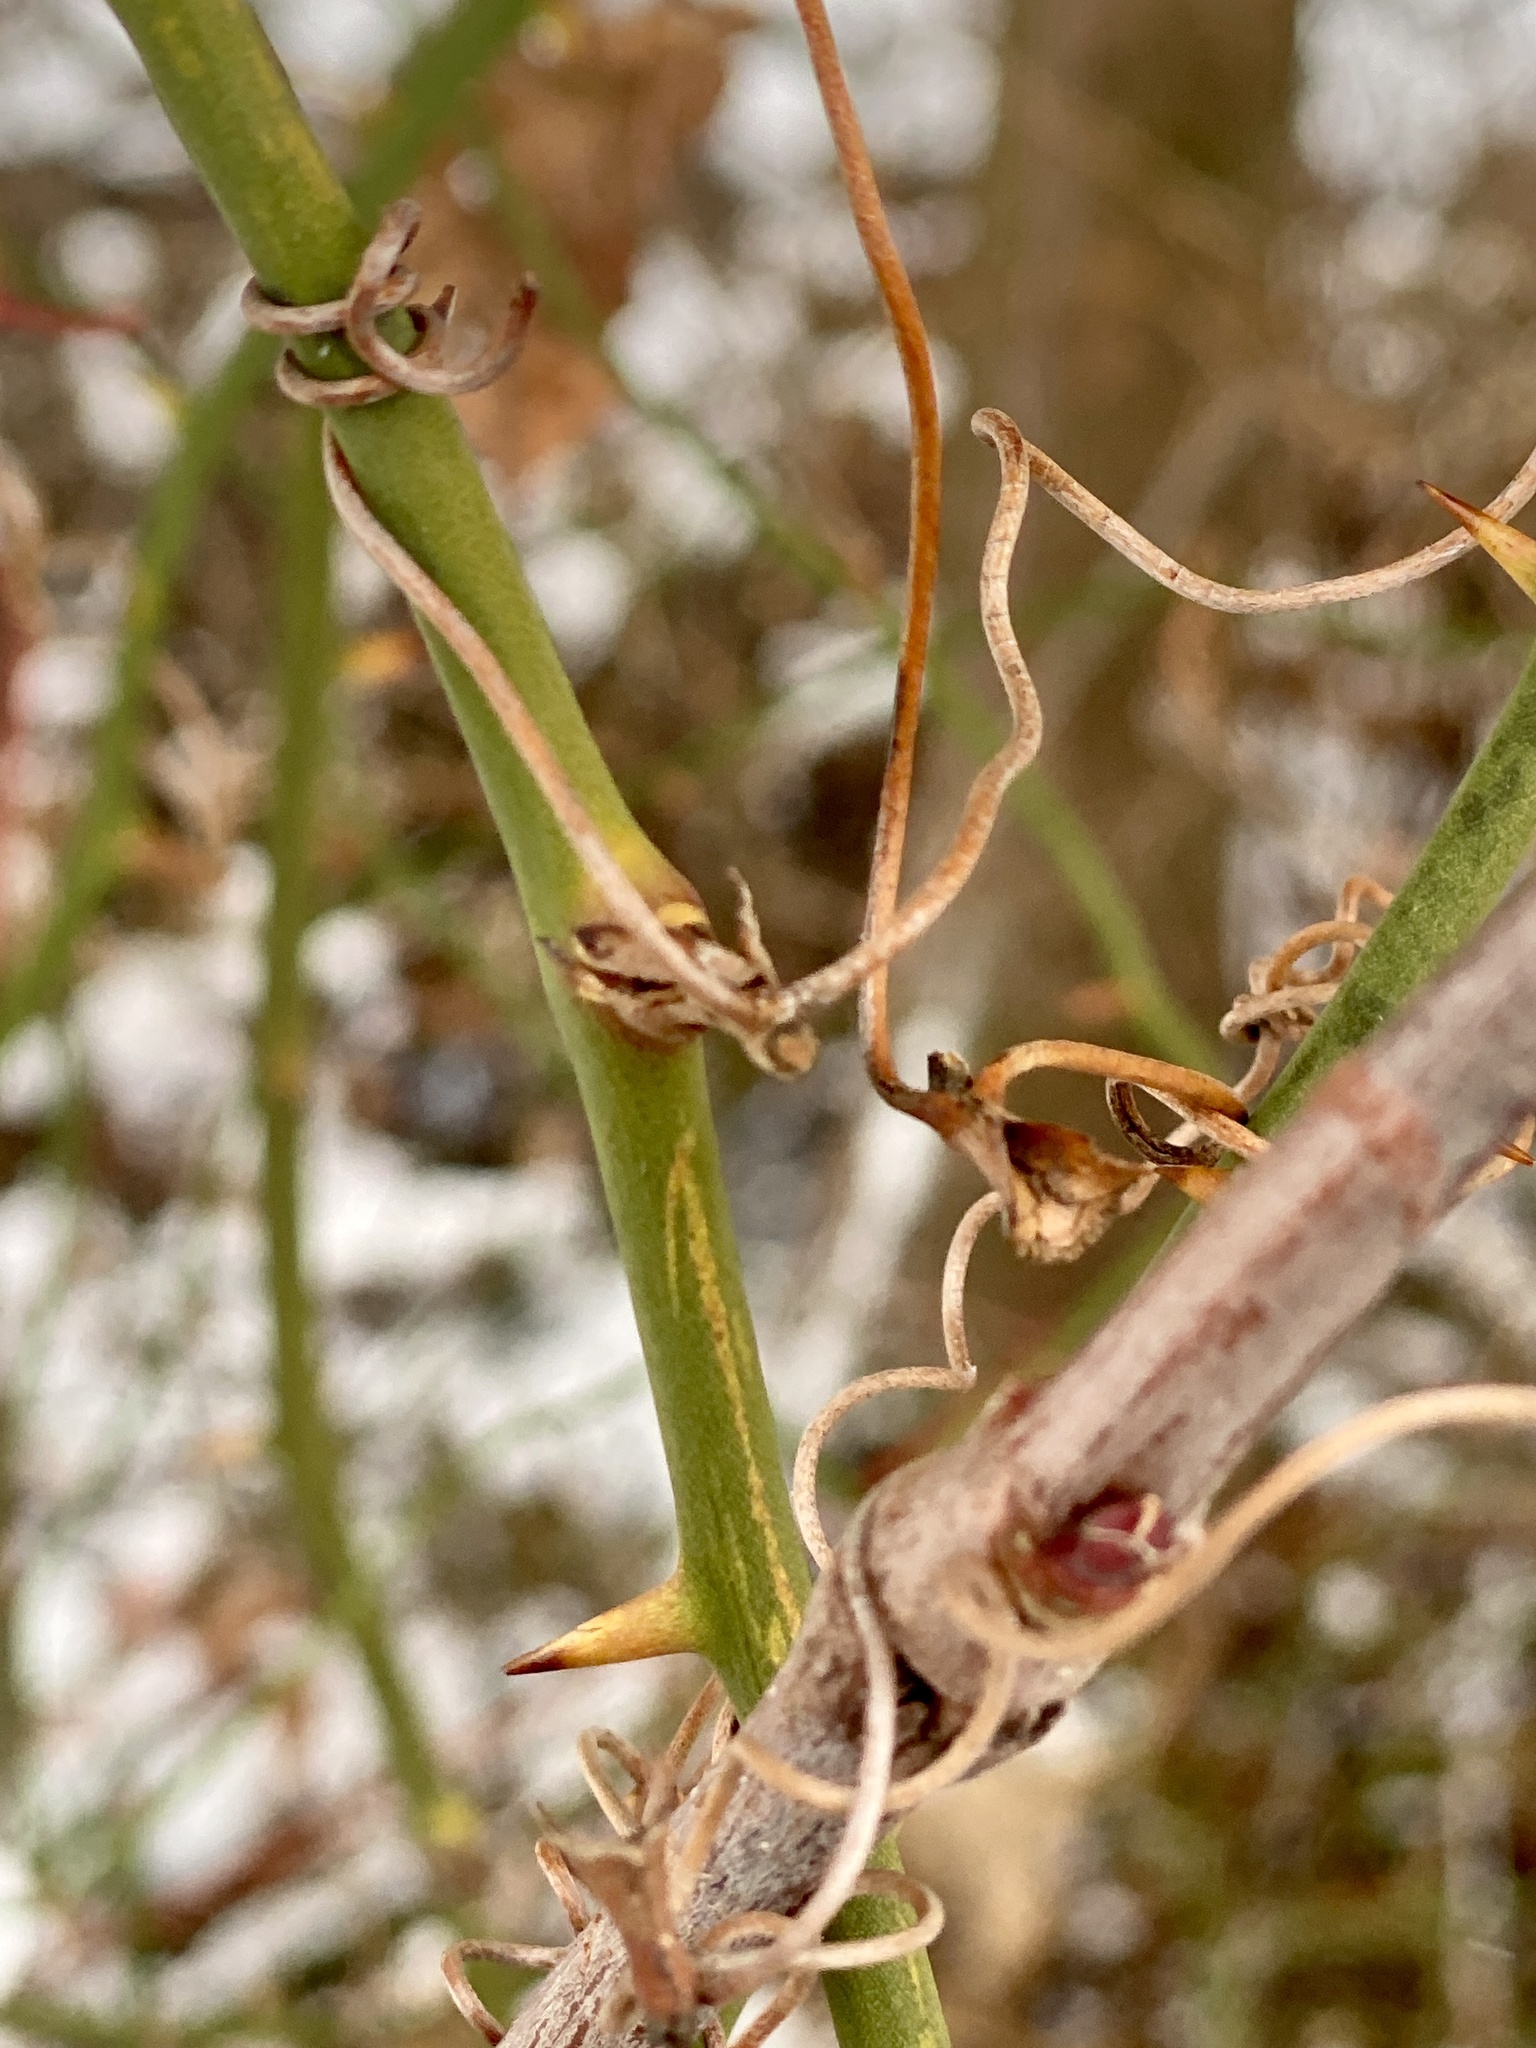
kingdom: Plantae
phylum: Tracheophyta
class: Liliopsida
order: Liliales
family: Smilacaceae
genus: Smilax
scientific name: Smilax rotundifolia
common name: Bullbriar
